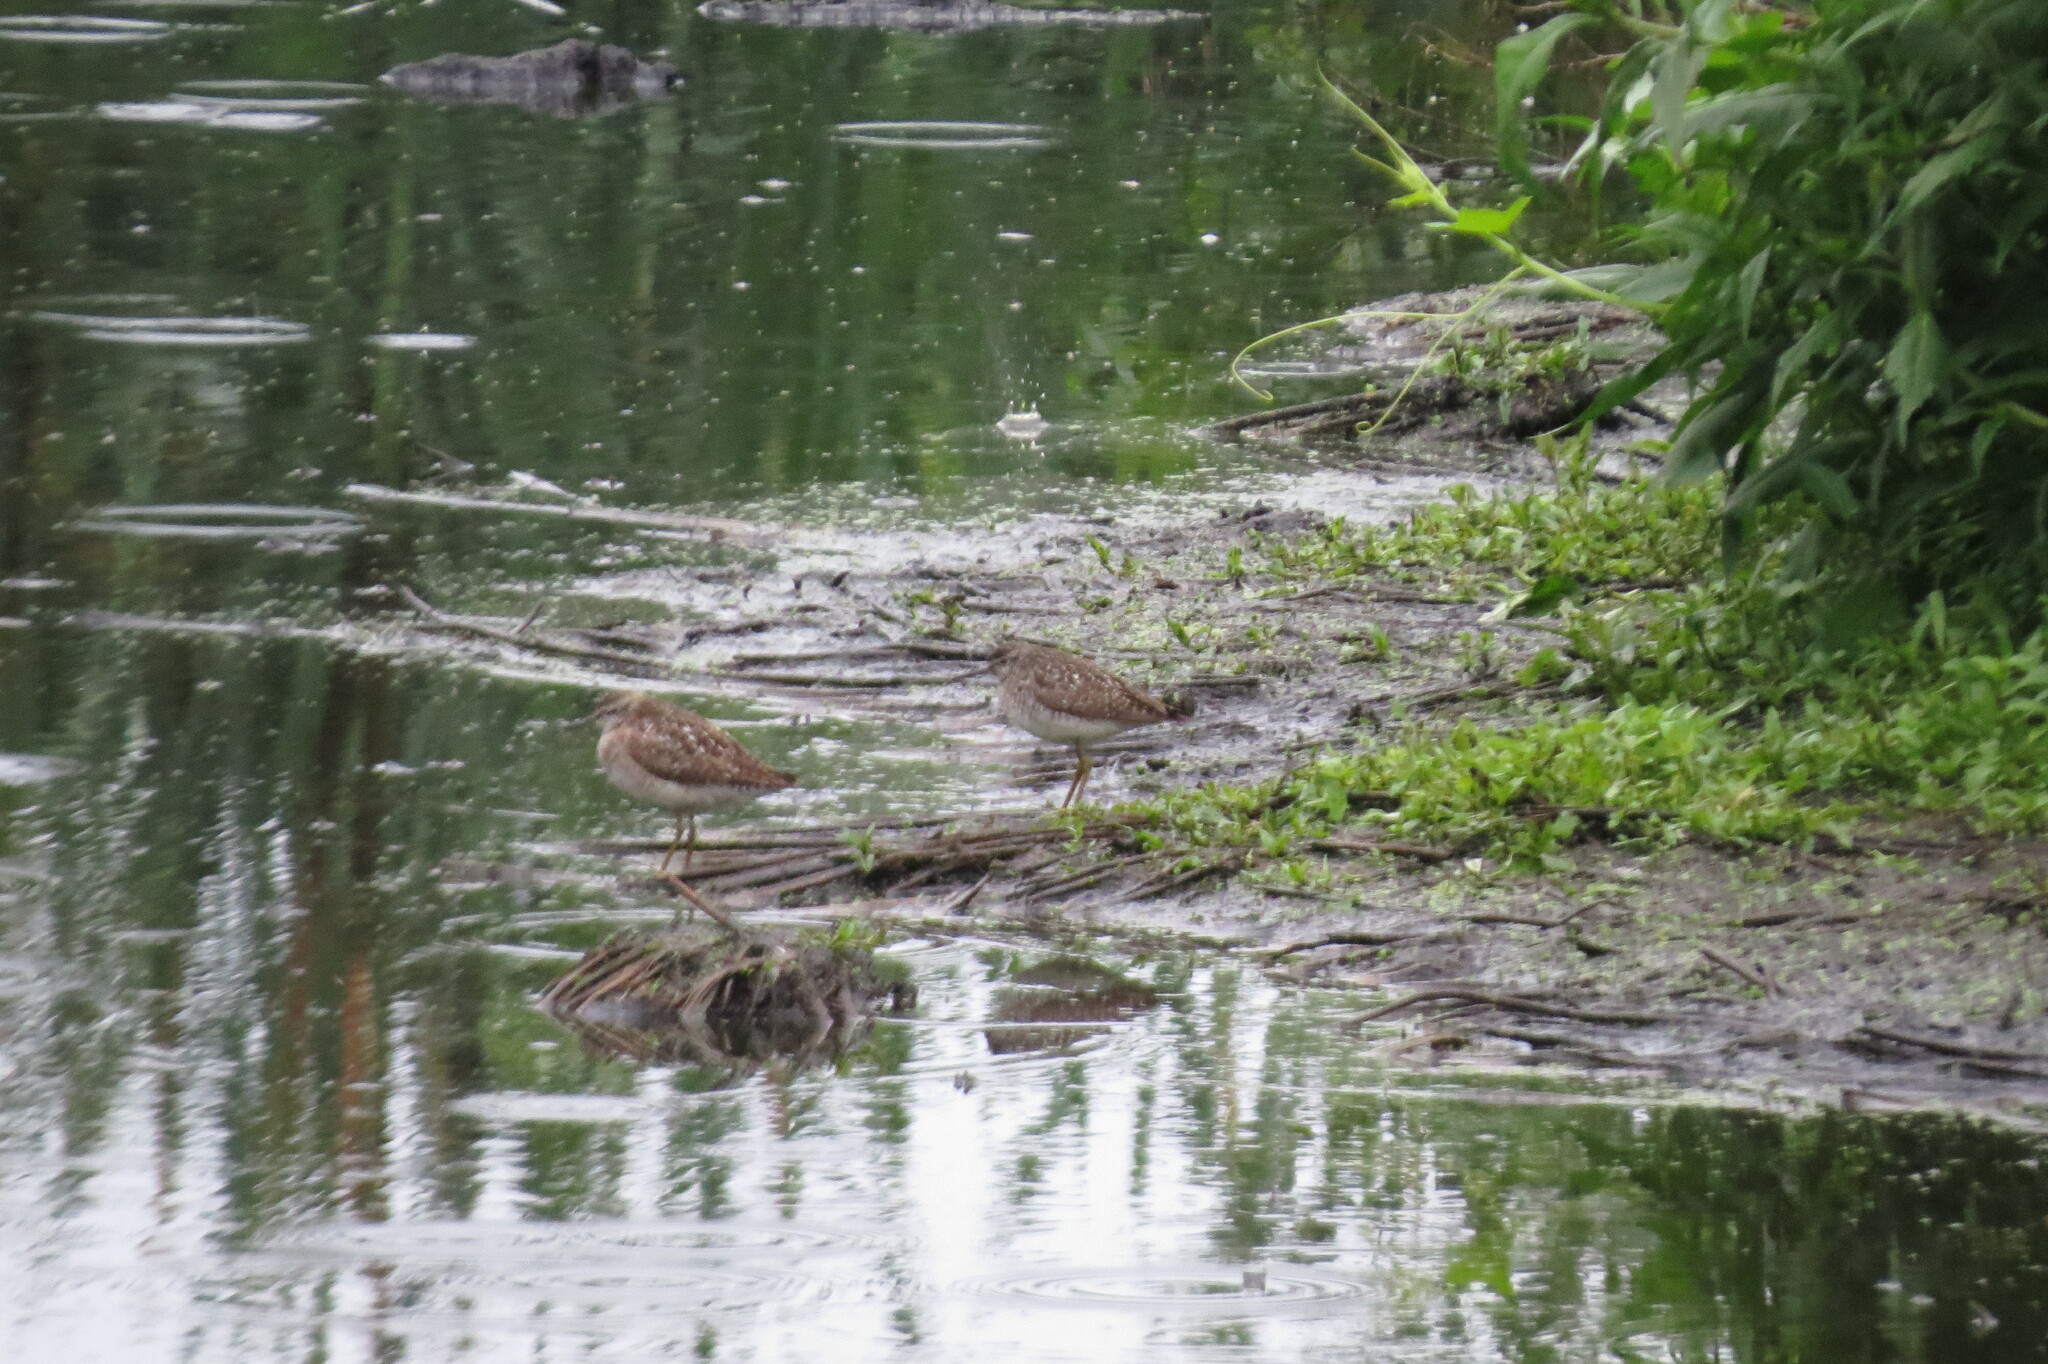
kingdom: Animalia
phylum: Chordata
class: Aves
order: Charadriiformes
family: Scolopacidae
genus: Tringa
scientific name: Tringa glareola
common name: Wood sandpiper
